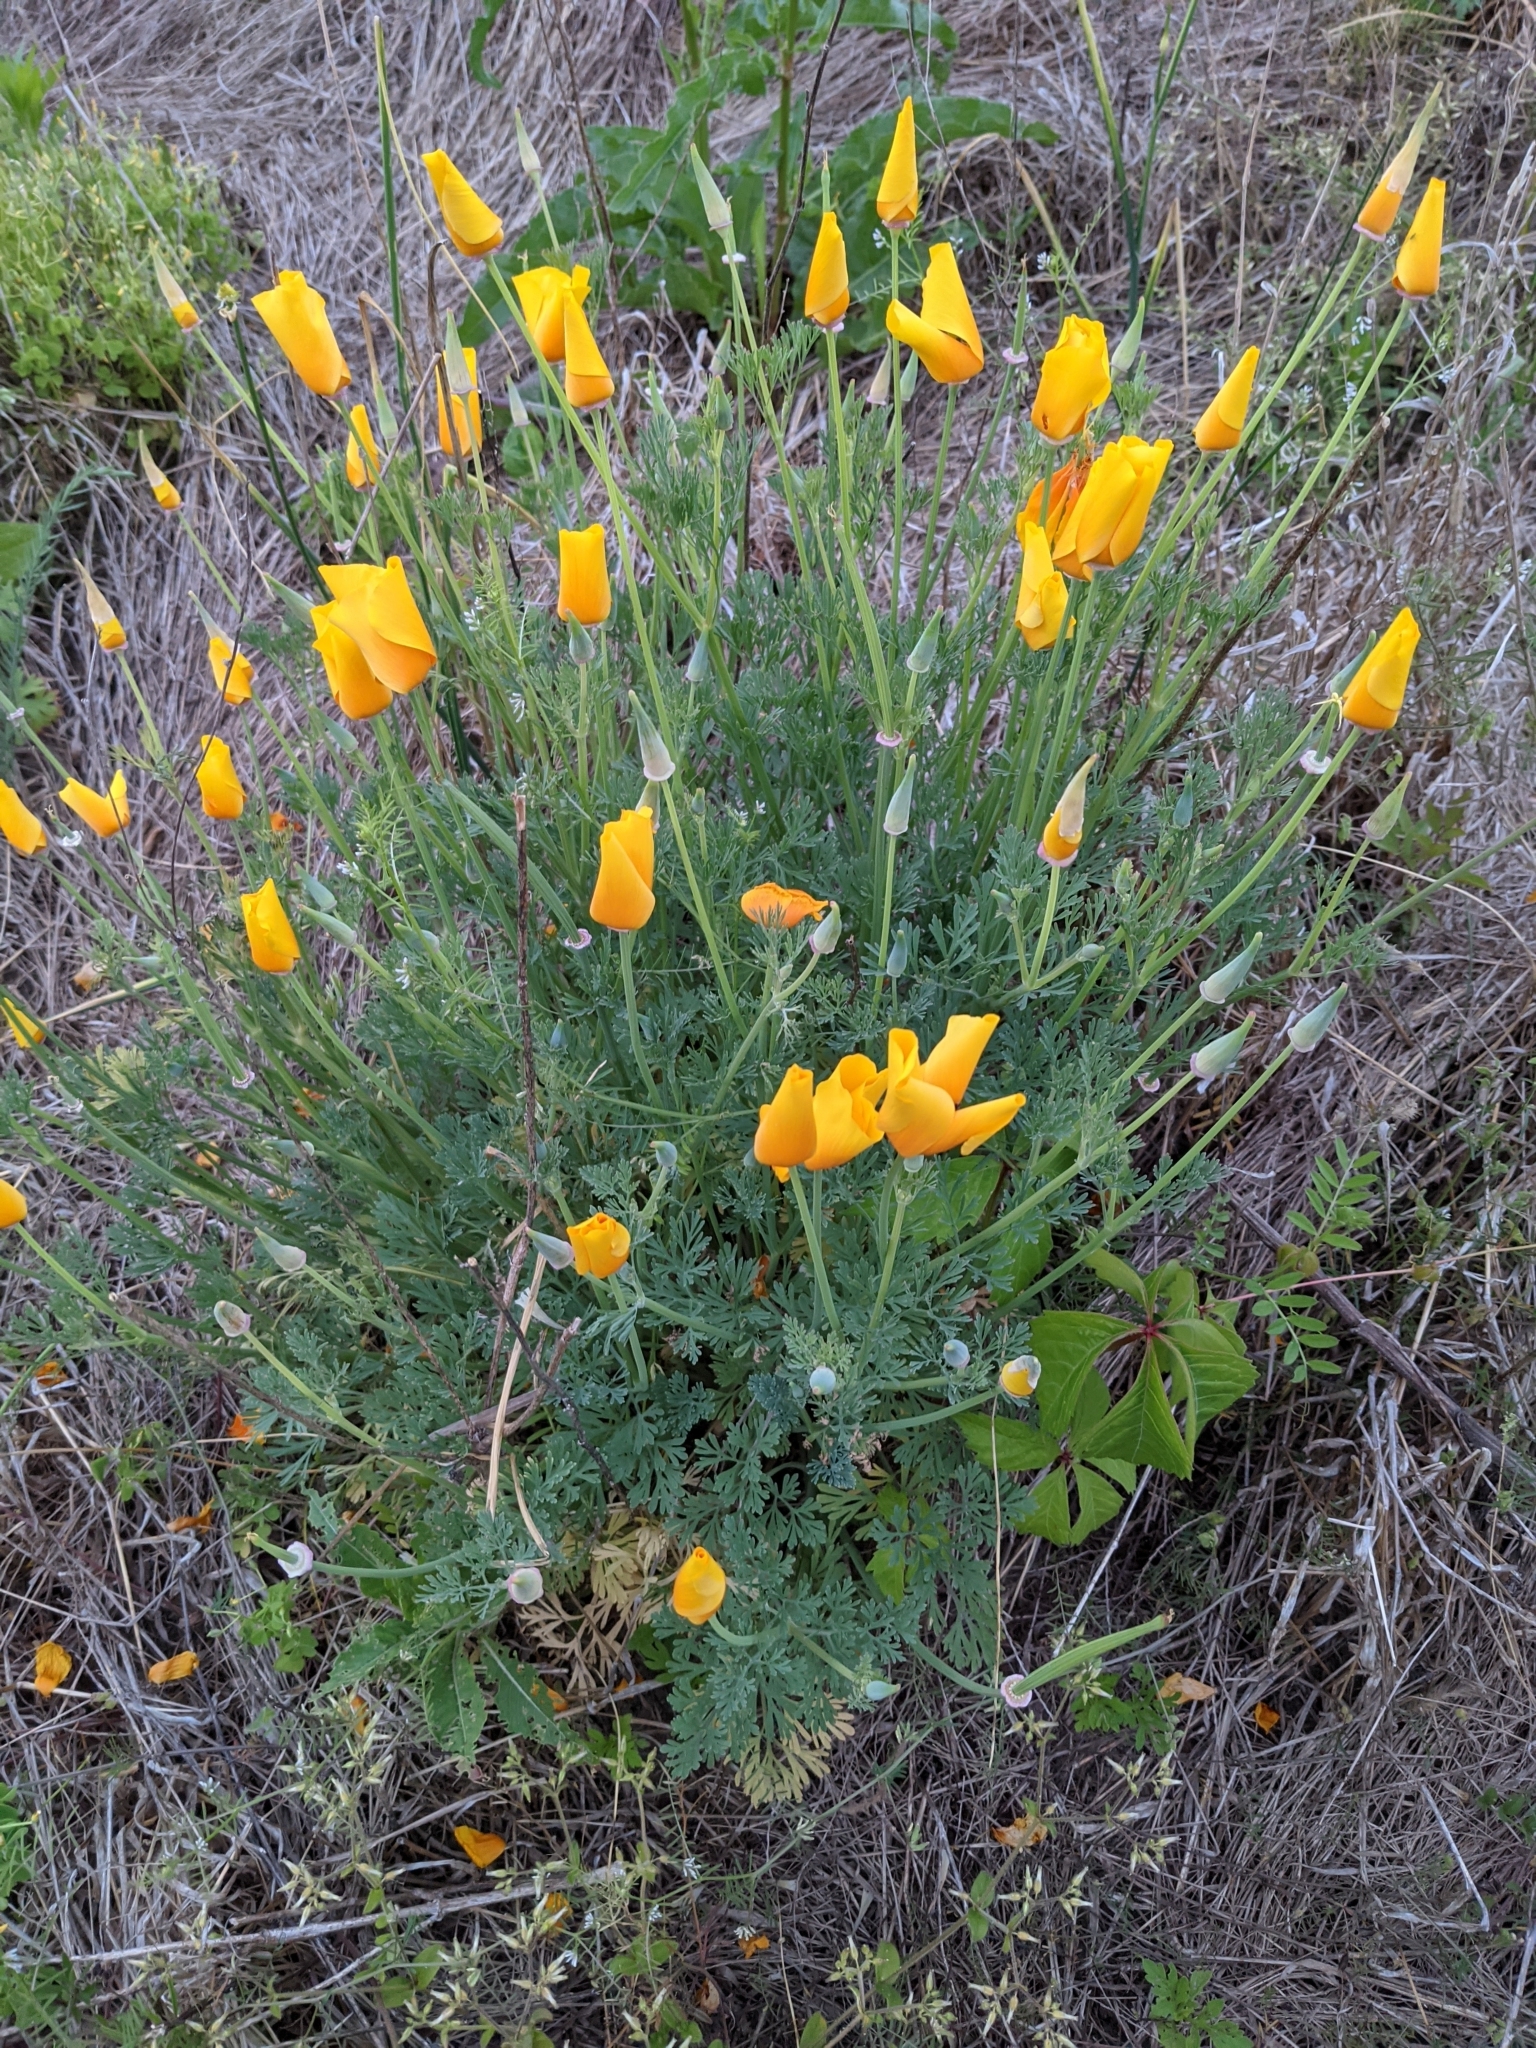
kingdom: Plantae
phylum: Tracheophyta
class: Magnoliopsida
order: Ranunculales
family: Papaveraceae
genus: Eschscholzia
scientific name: Eschscholzia californica
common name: California poppy
